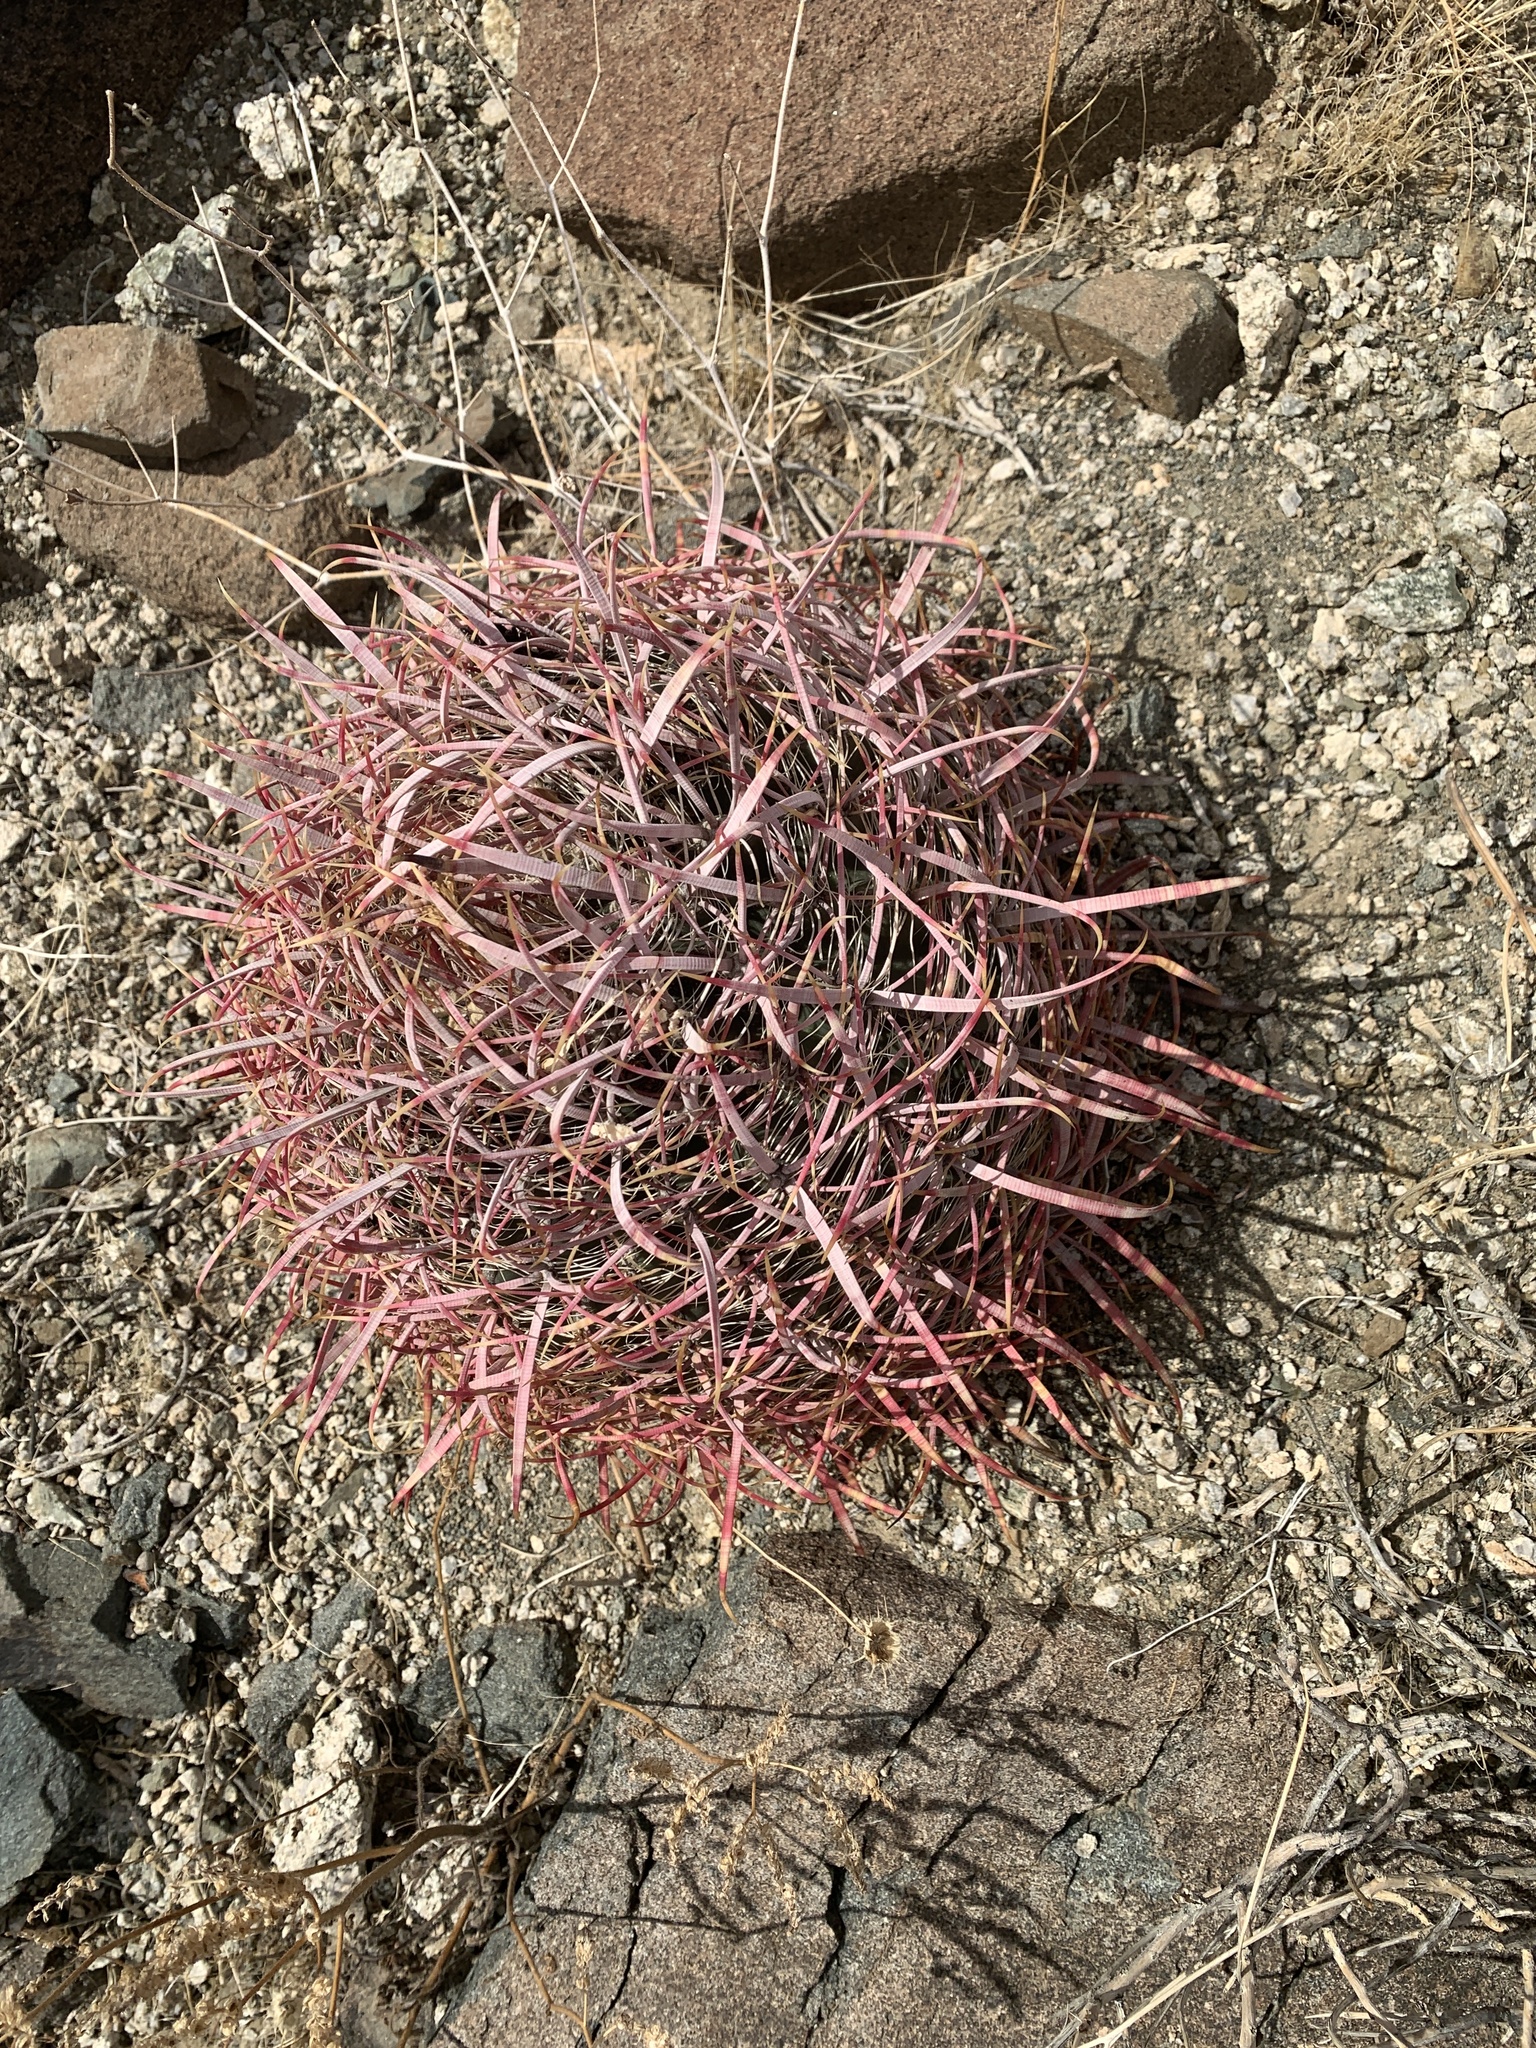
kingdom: Plantae
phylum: Tracheophyta
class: Magnoliopsida
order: Caryophyllales
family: Cactaceae
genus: Ferocactus
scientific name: Ferocactus cylindraceus
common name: California barrel cactus
